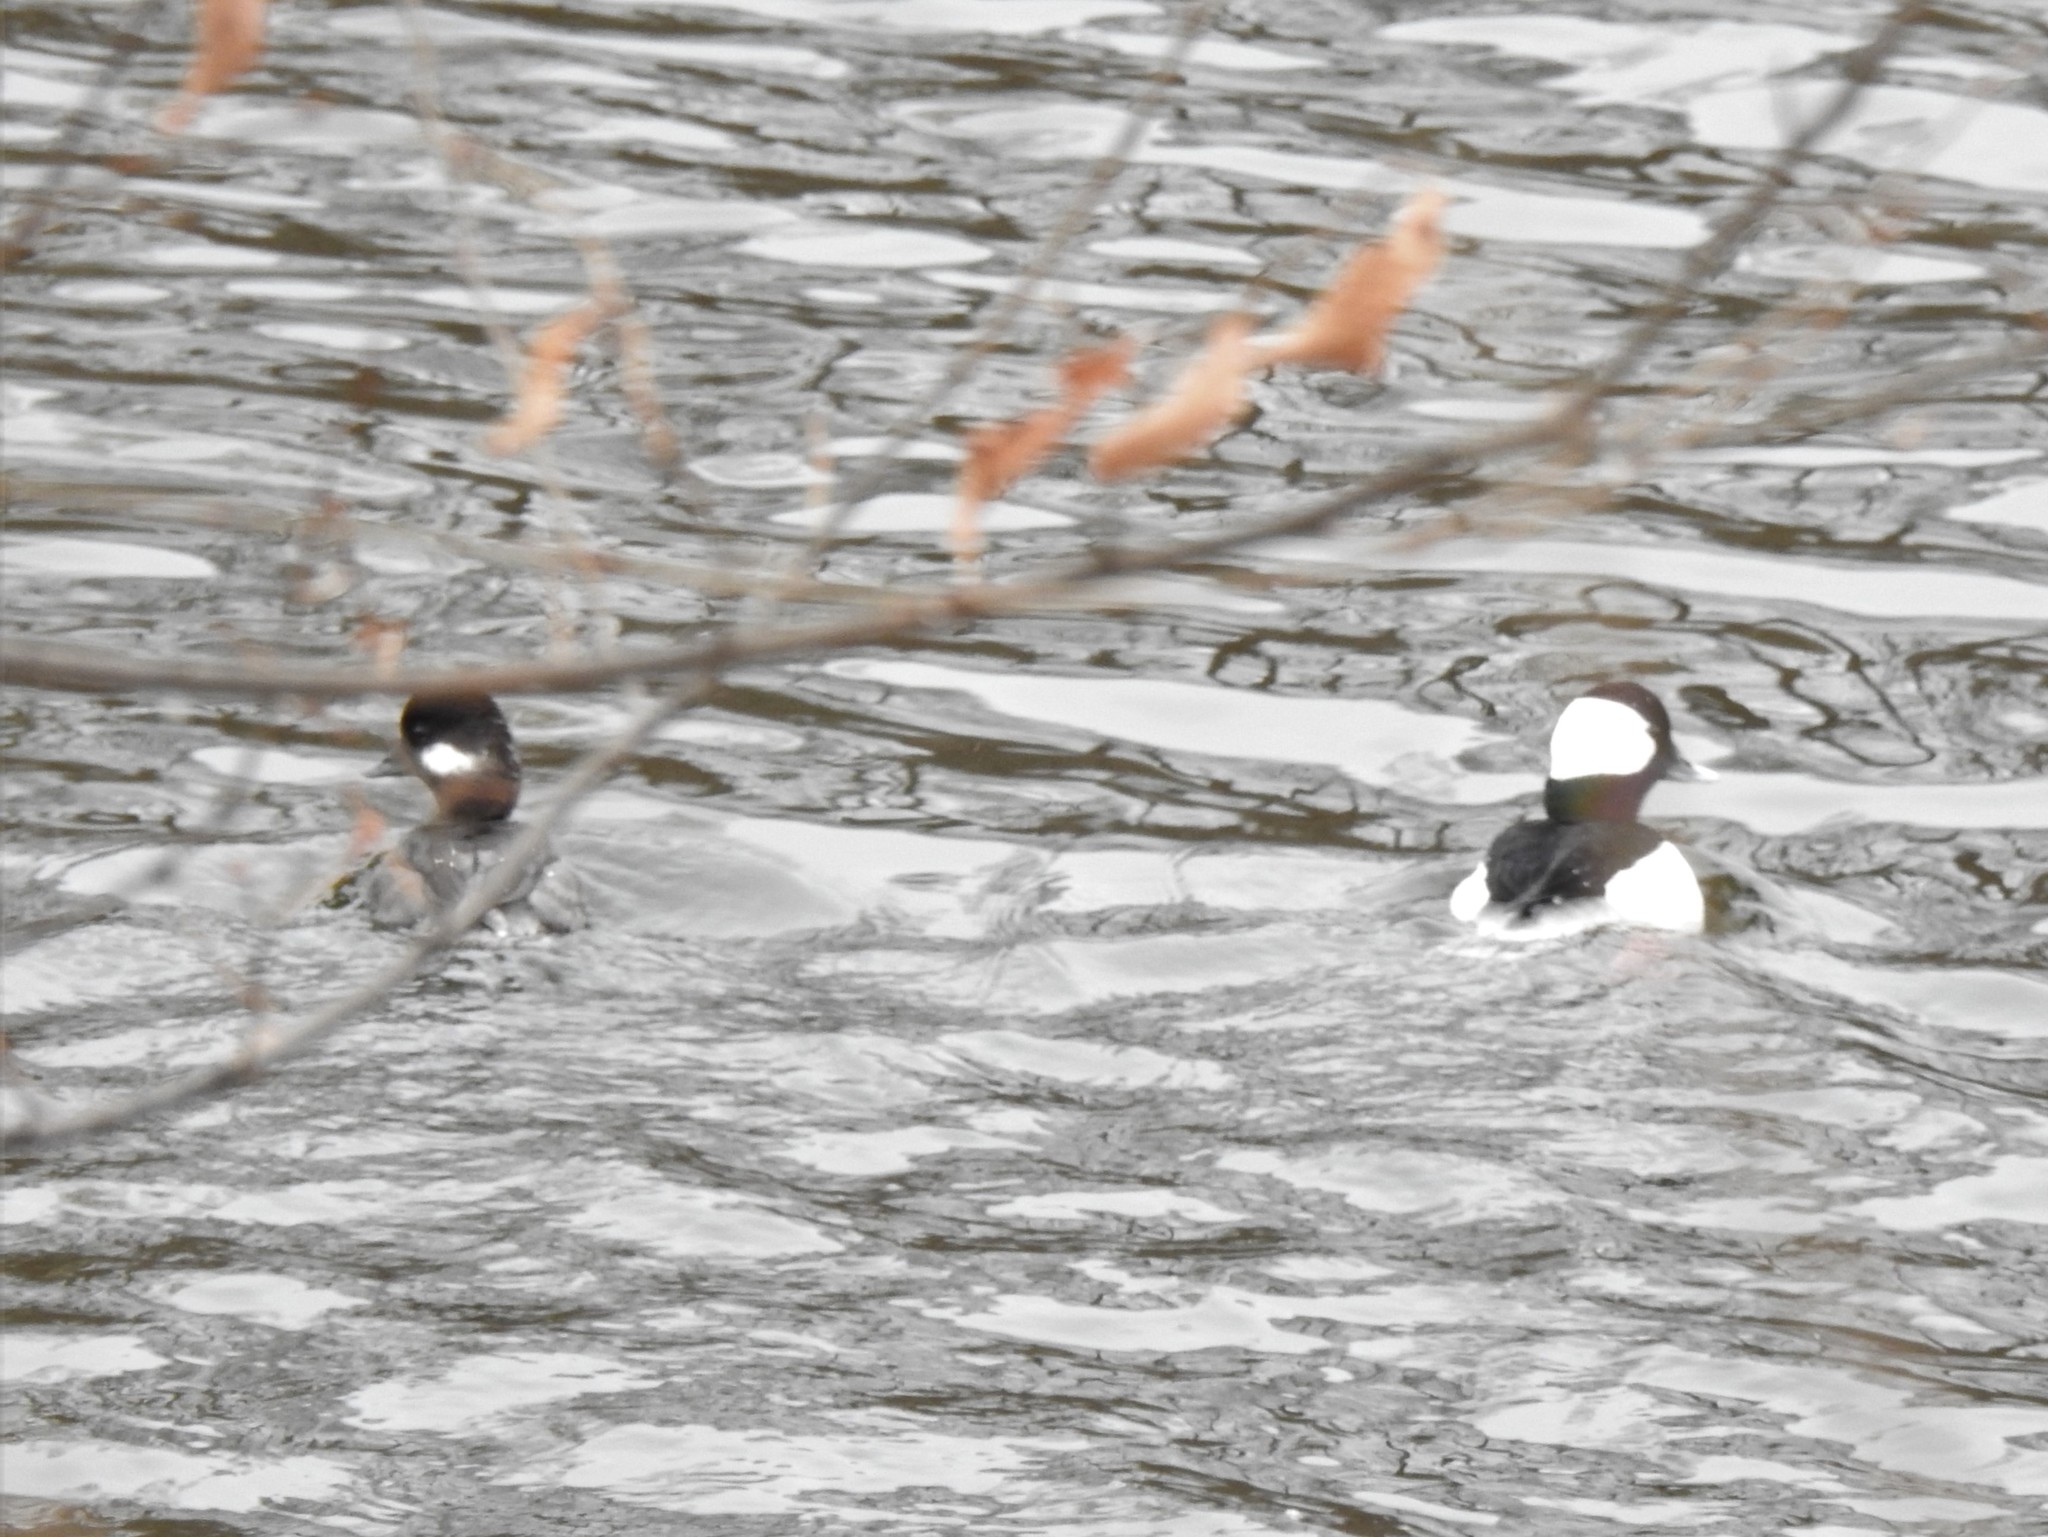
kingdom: Animalia
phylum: Chordata
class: Aves
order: Anseriformes
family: Anatidae
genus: Bucephala
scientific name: Bucephala albeola
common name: Bufflehead
